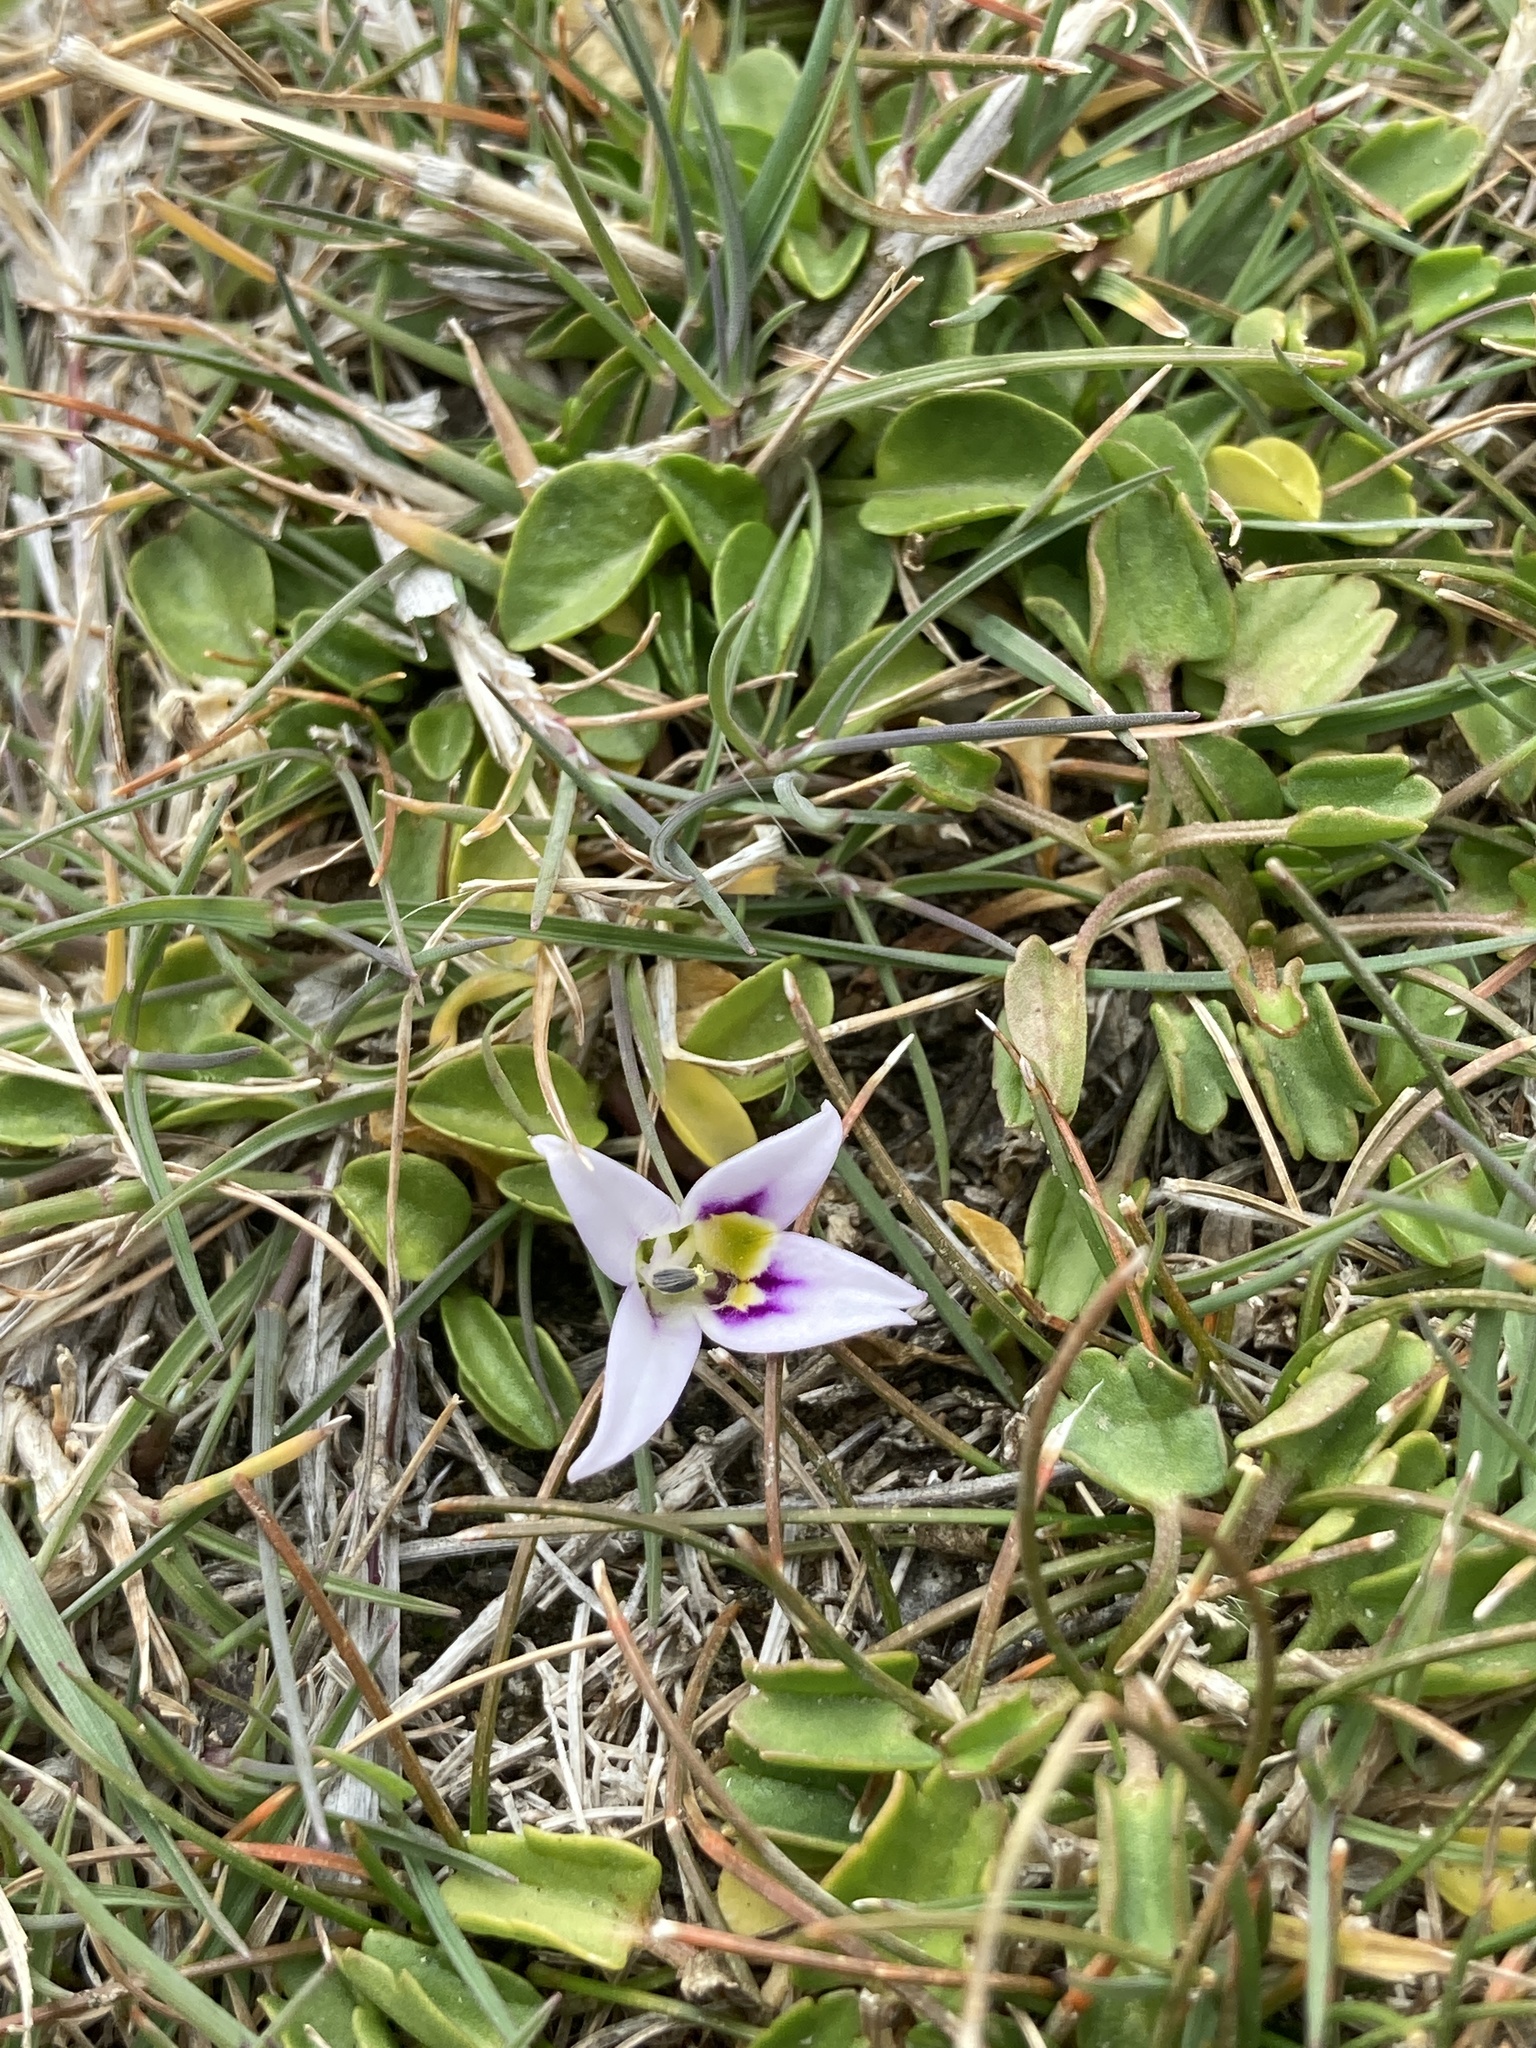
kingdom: Plantae
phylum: Tracheophyta
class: Magnoliopsida
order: Asterales
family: Campanulaceae
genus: Lobelia
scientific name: Lobelia oligophylla
